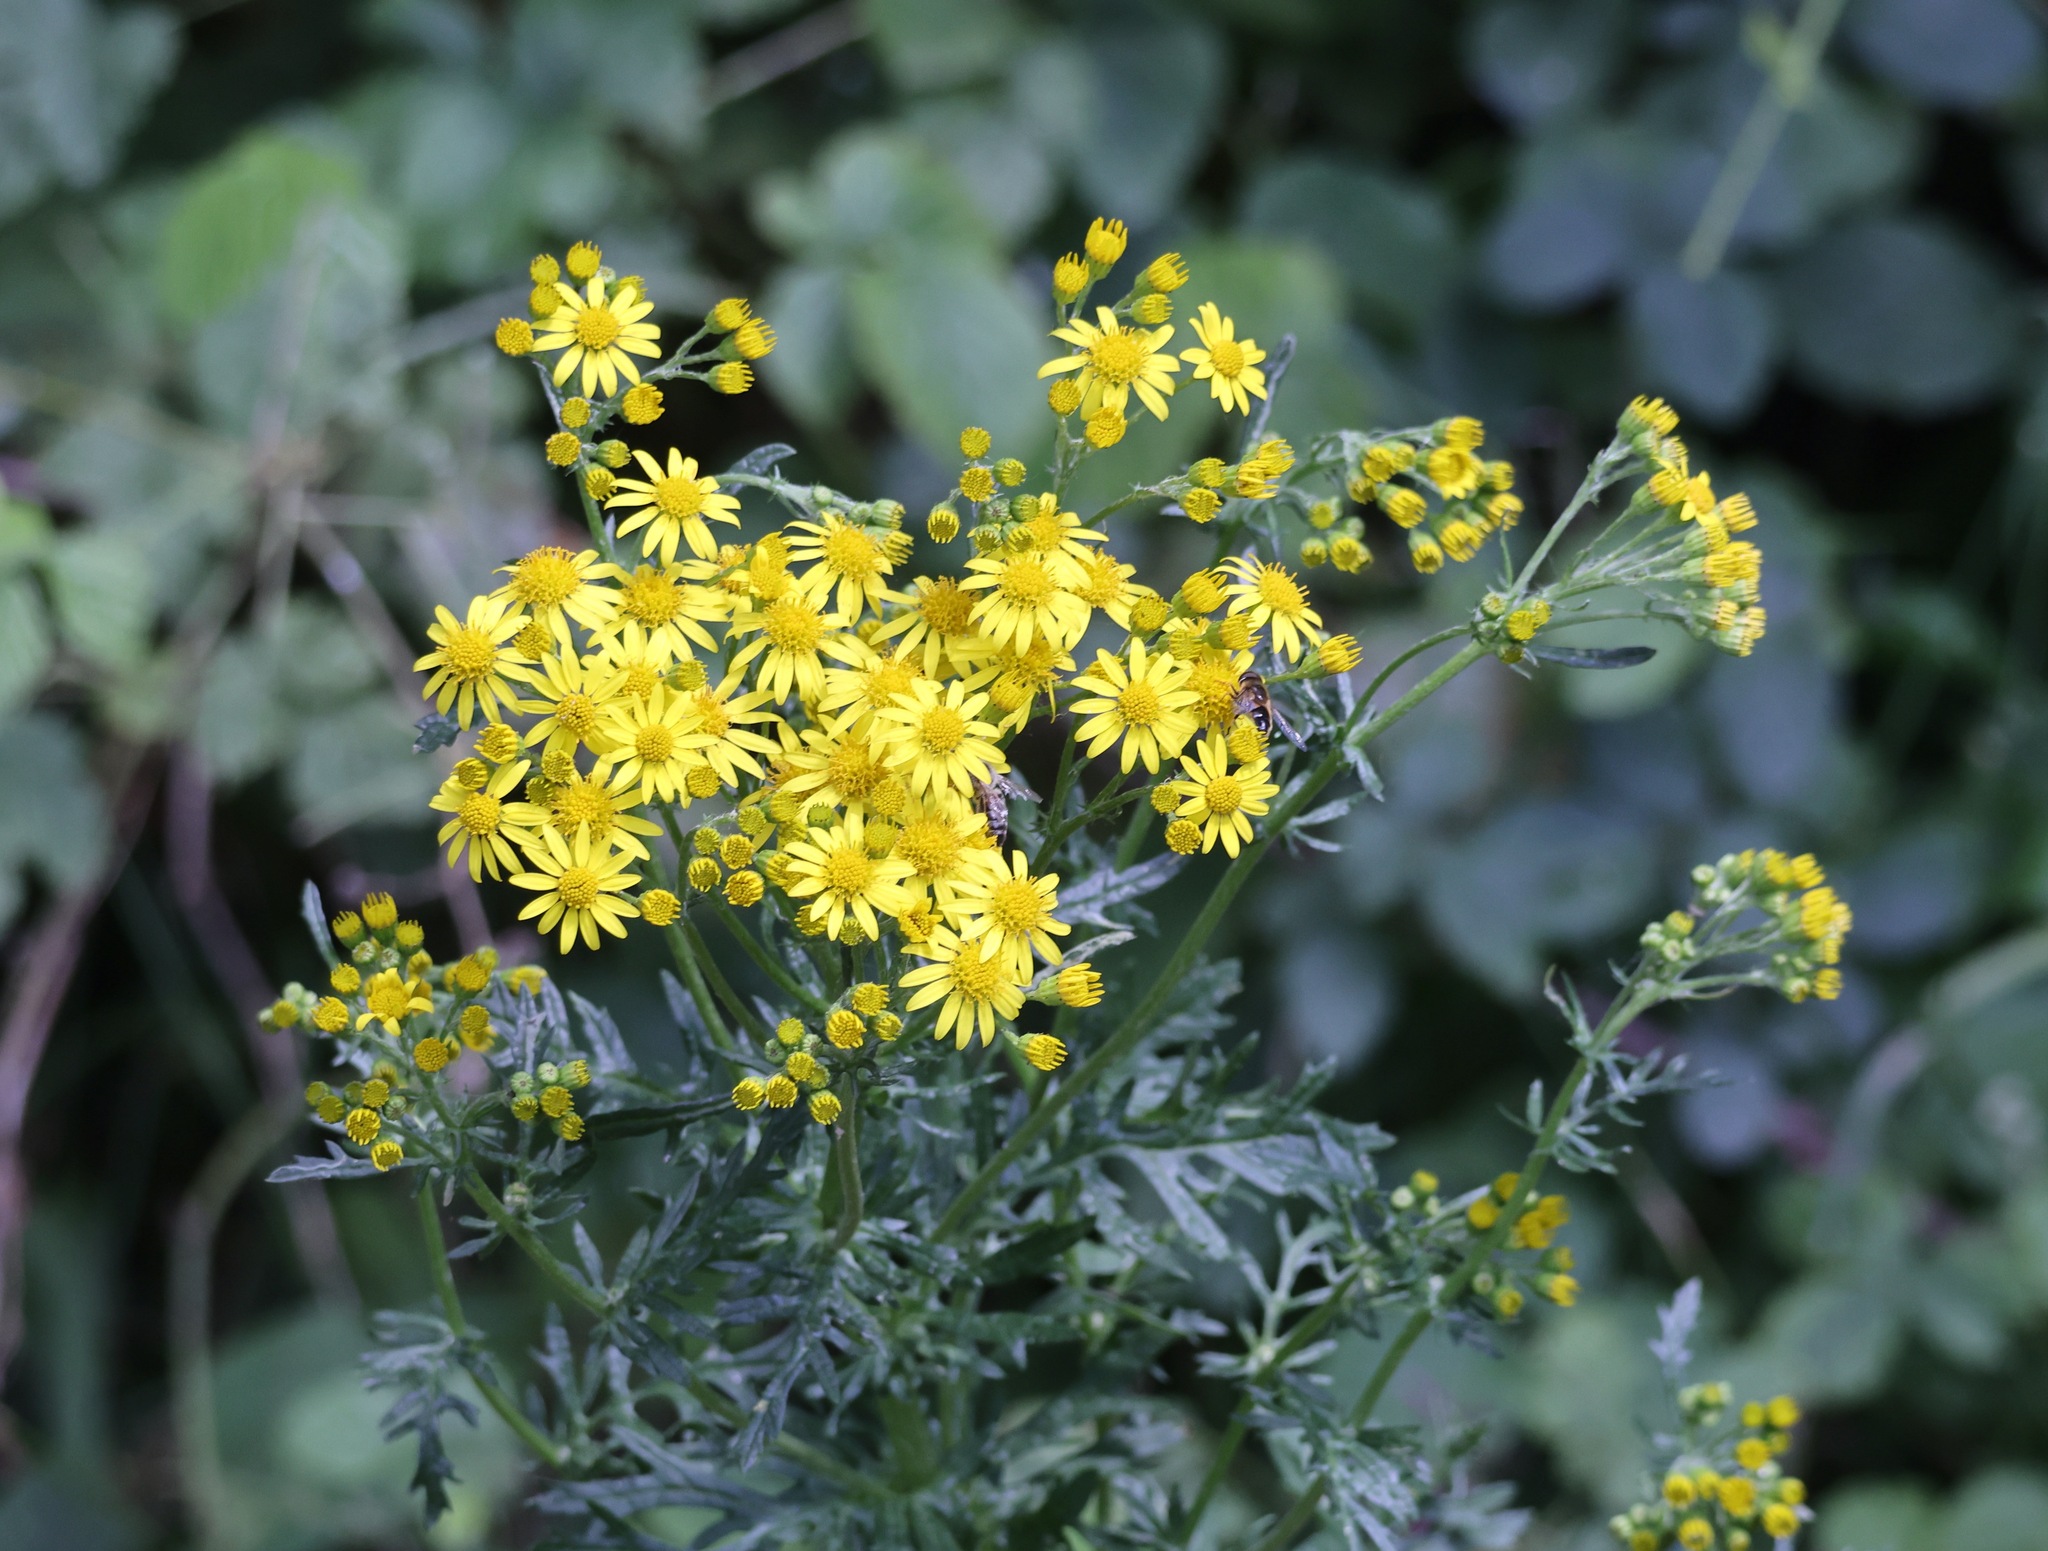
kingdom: Plantae
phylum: Tracheophyta
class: Magnoliopsida
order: Asterales
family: Asteraceae
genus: Jacobaea
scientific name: Jacobaea vulgaris
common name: Stinking willie
